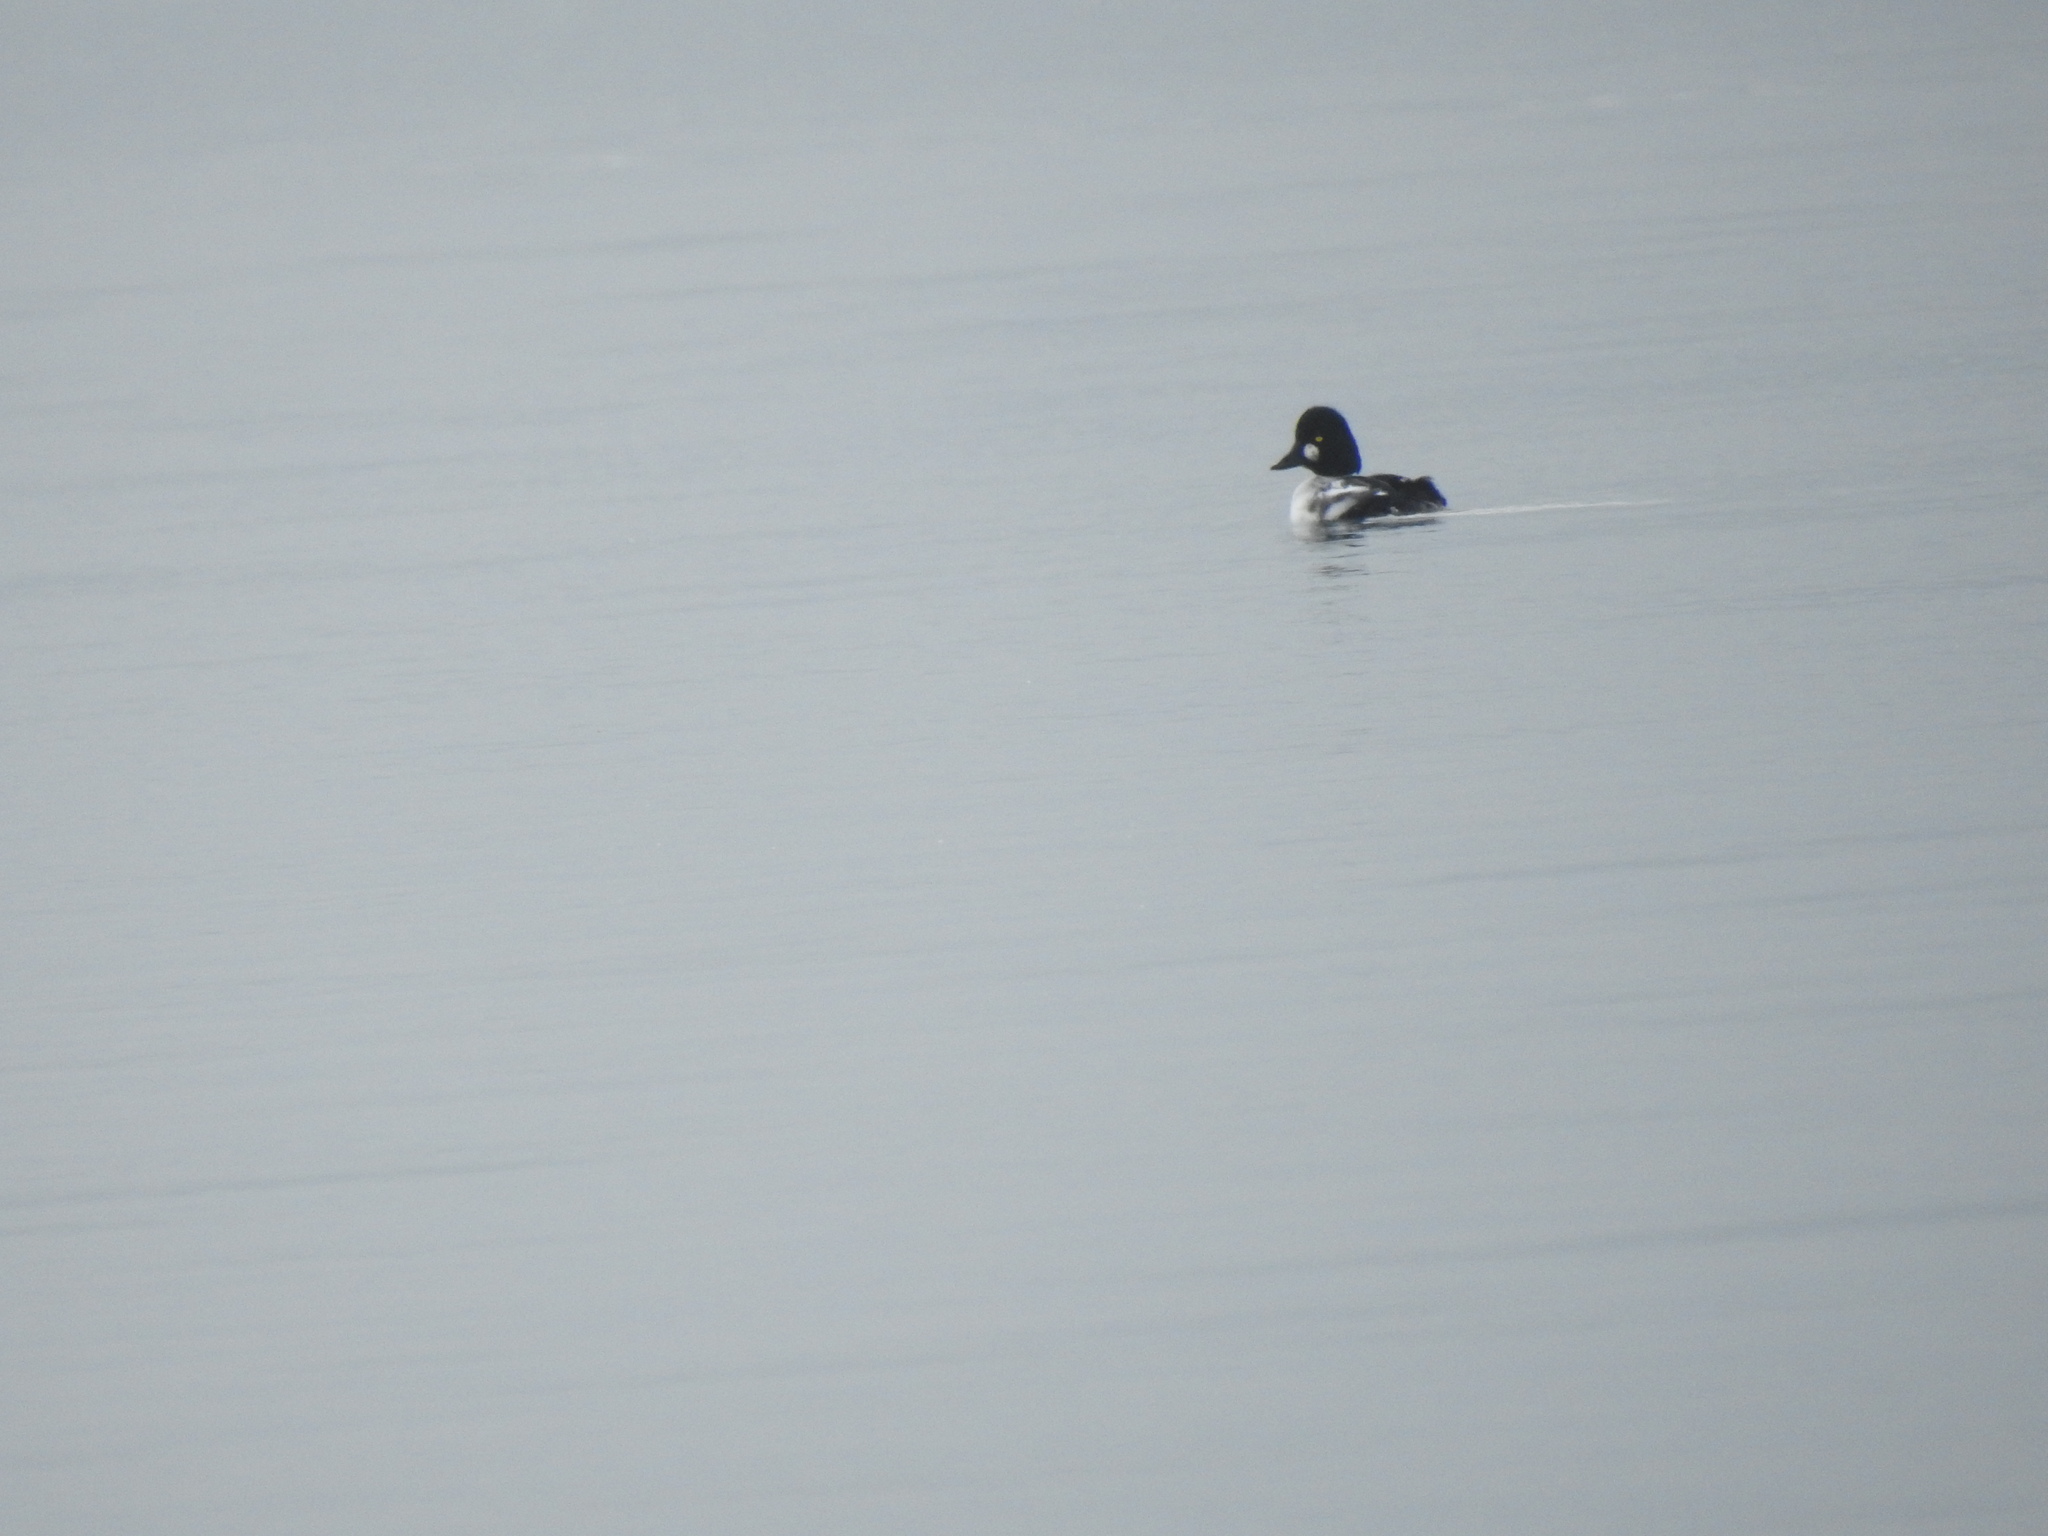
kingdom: Animalia
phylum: Chordata
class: Aves
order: Anseriformes
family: Anatidae
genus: Bucephala
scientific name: Bucephala clangula
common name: Common goldeneye
